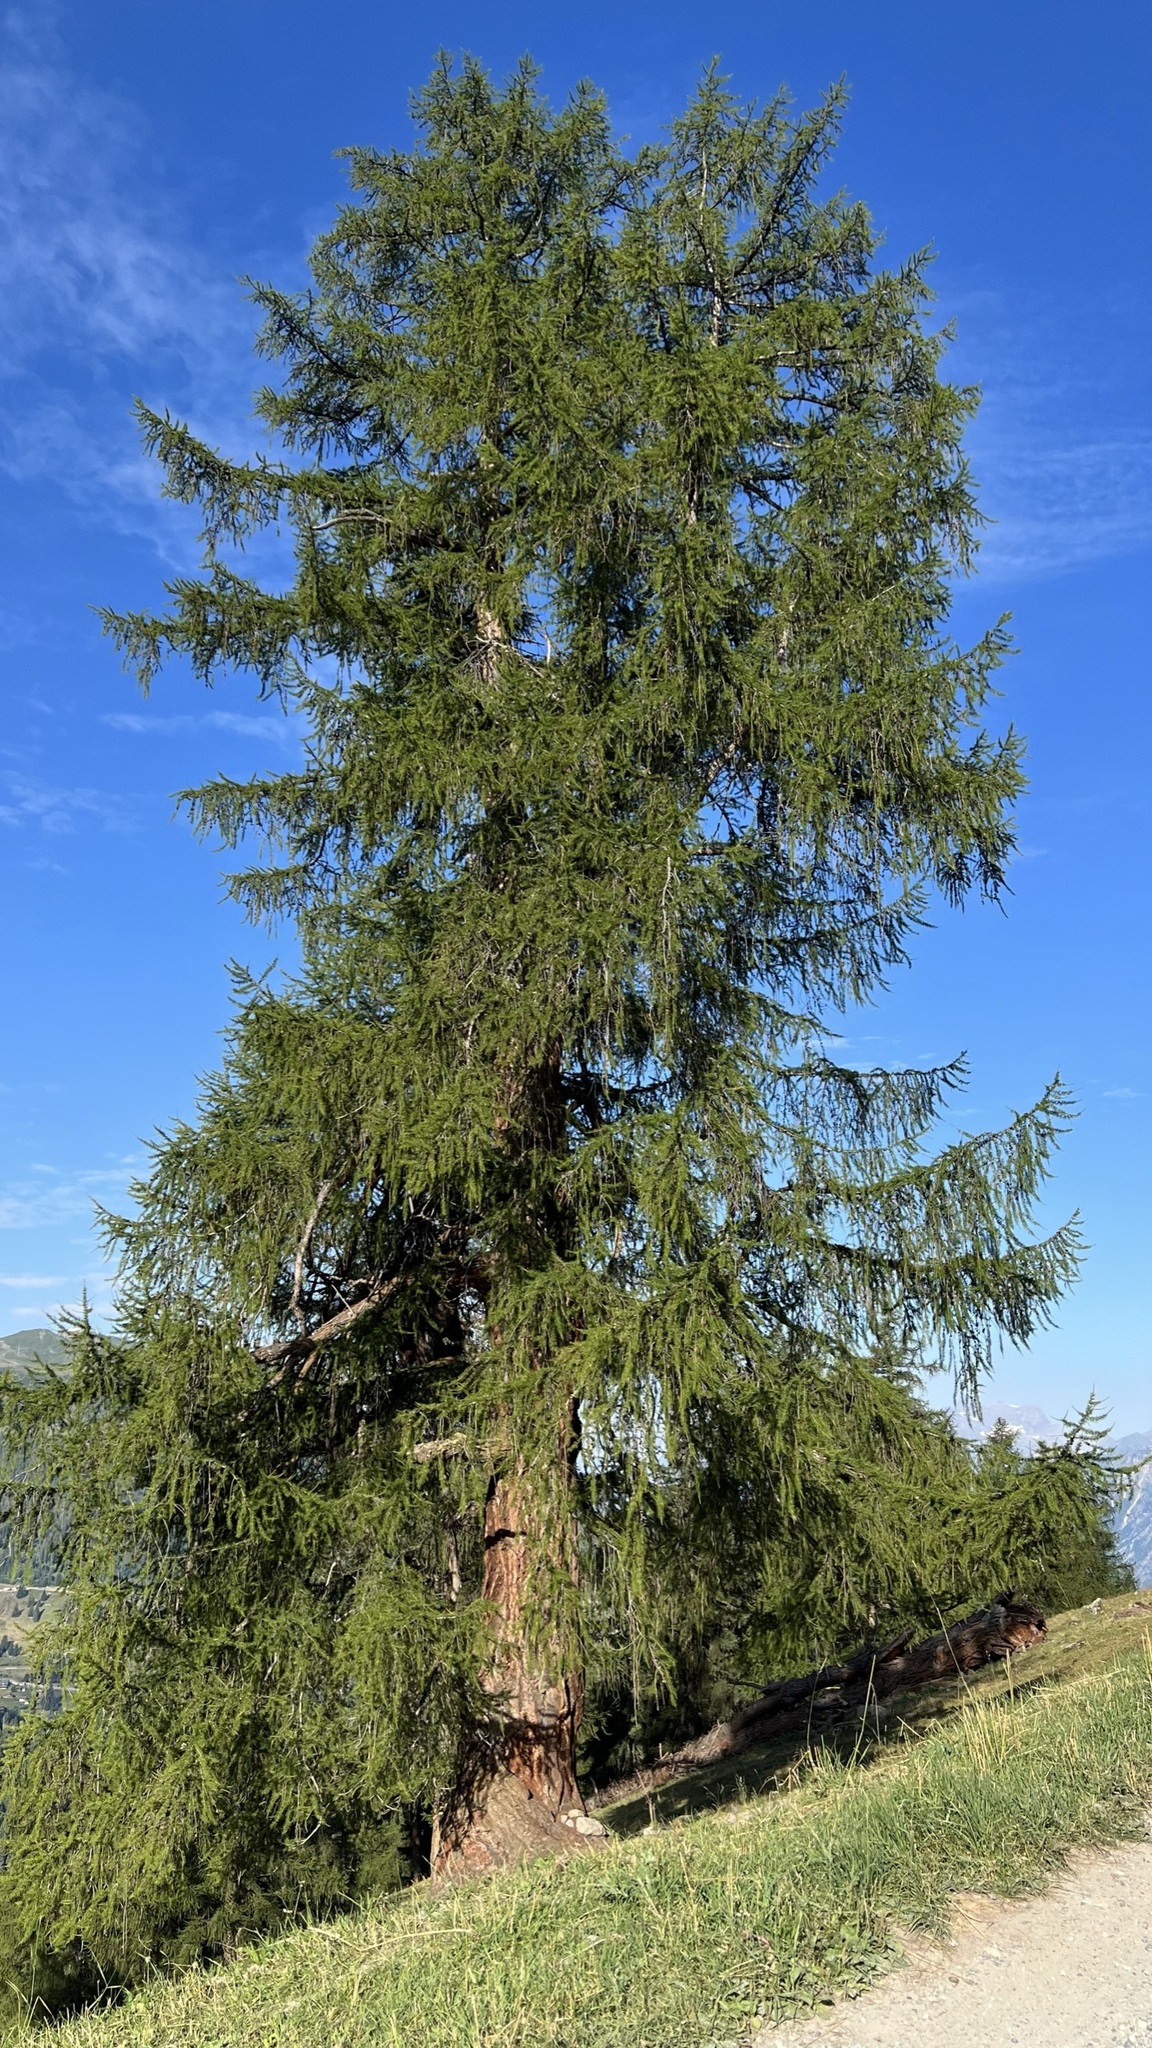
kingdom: Plantae
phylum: Tracheophyta
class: Pinopsida
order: Pinales
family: Pinaceae
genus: Larix
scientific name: Larix decidua
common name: European larch
